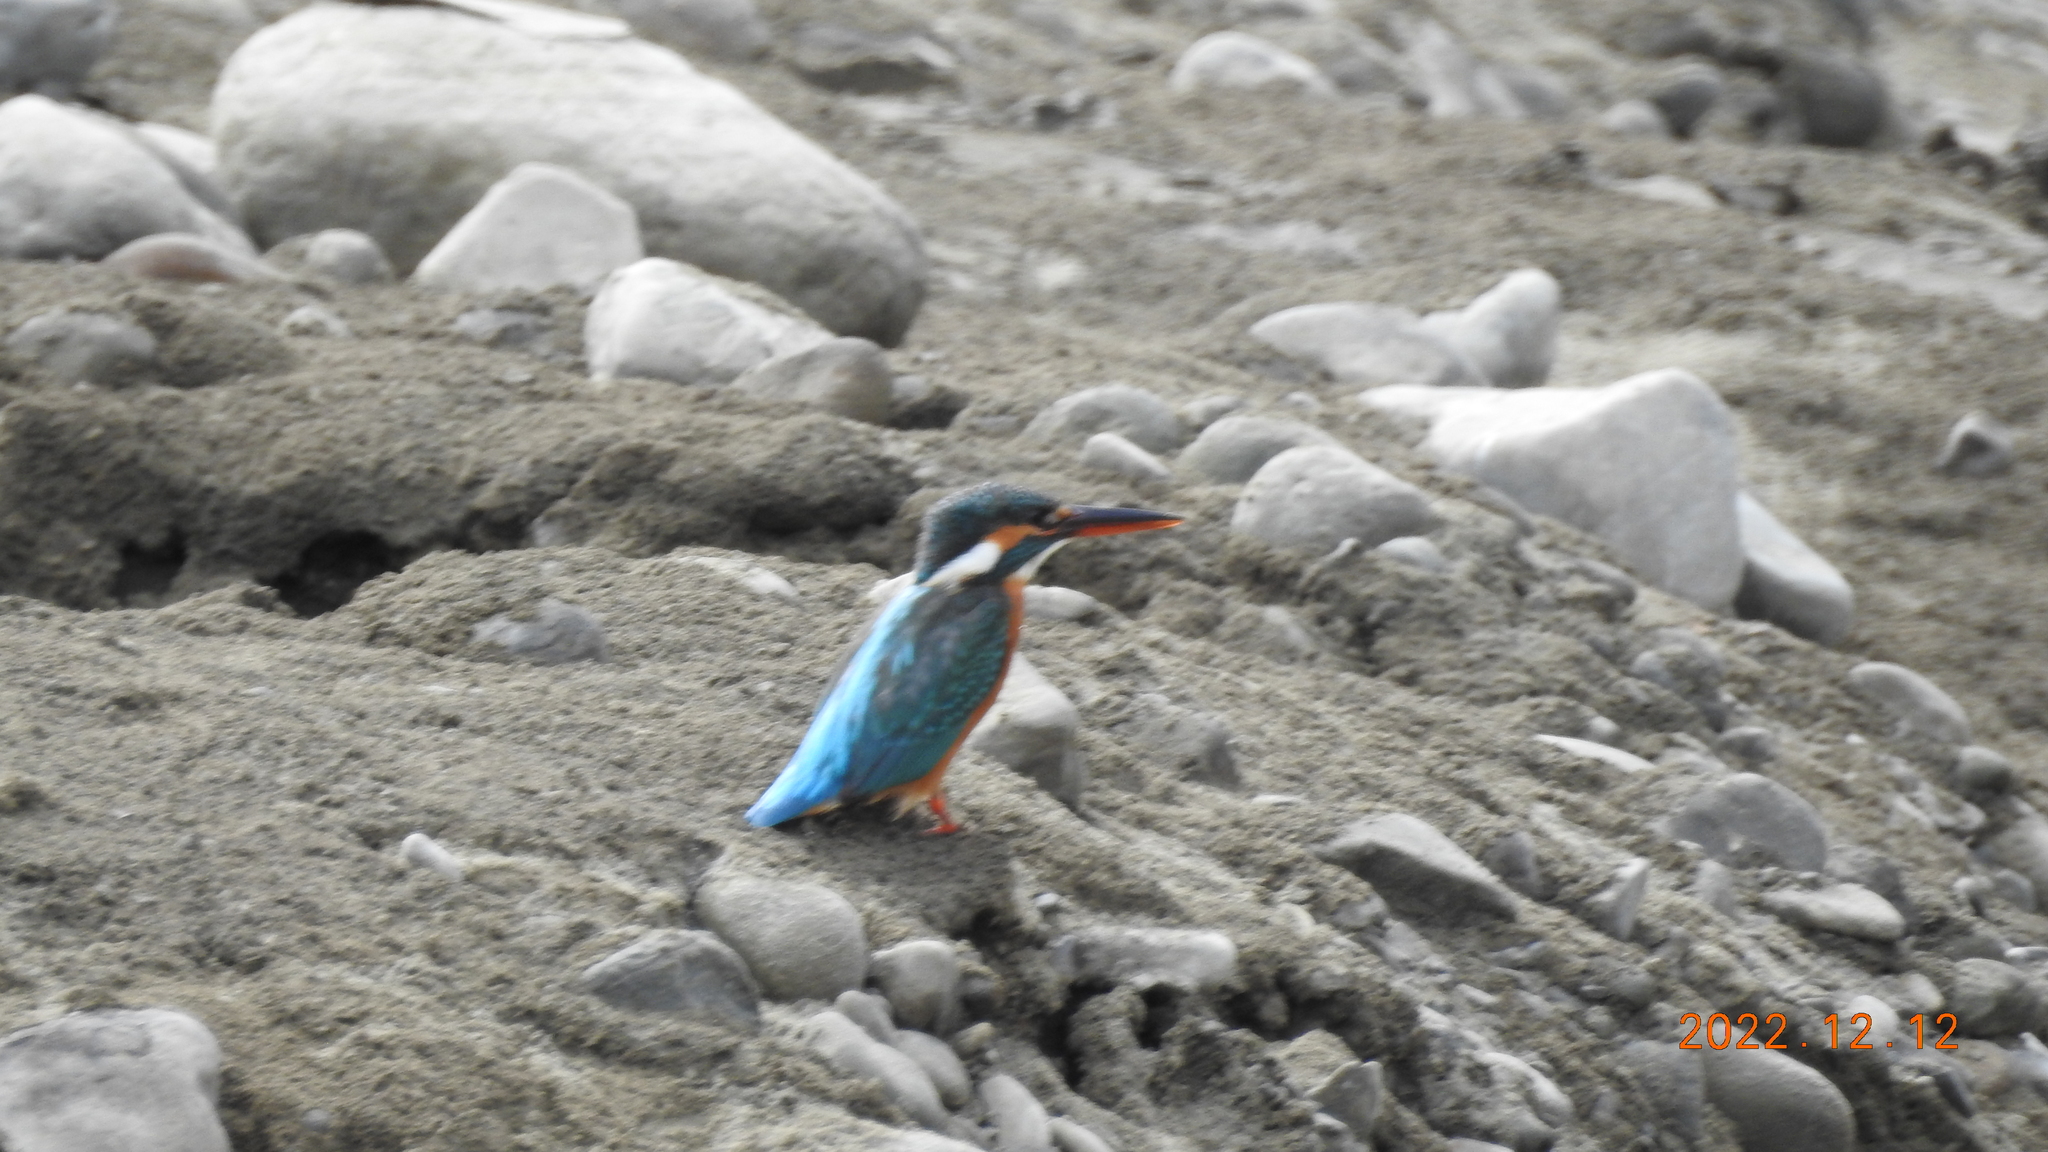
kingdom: Animalia
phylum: Chordata
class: Aves
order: Coraciiformes
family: Alcedinidae
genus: Alcedo
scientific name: Alcedo atthis
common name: Common kingfisher
